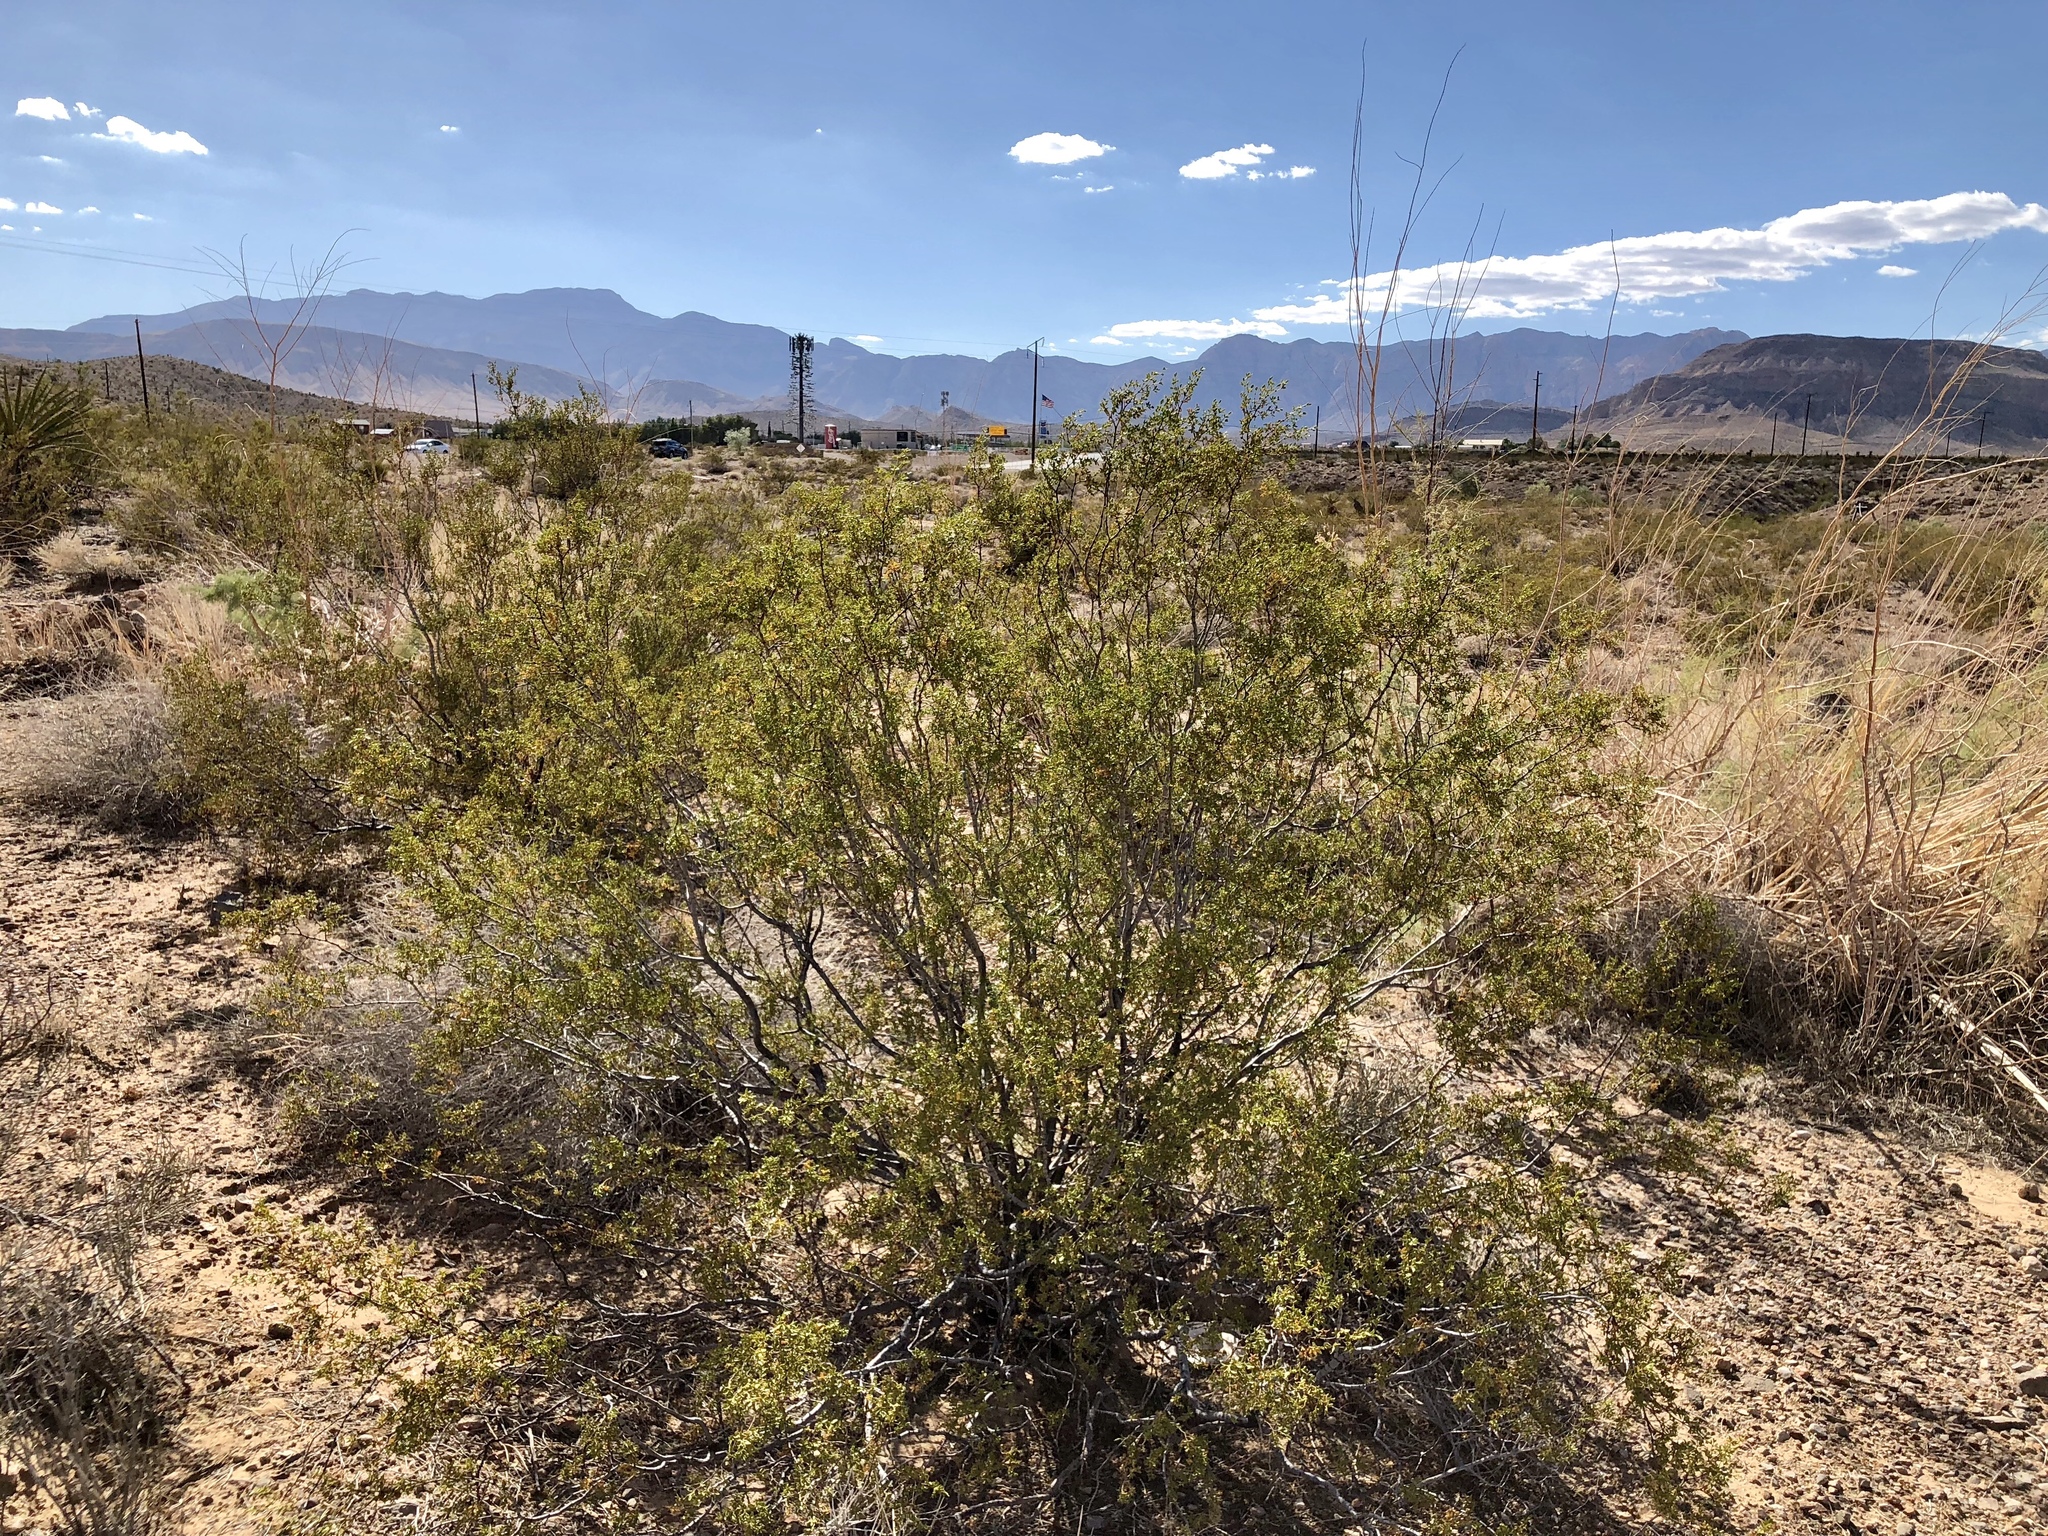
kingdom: Plantae
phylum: Tracheophyta
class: Magnoliopsida
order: Zygophyllales
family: Zygophyllaceae
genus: Larrea
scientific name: Larrea tridentata
